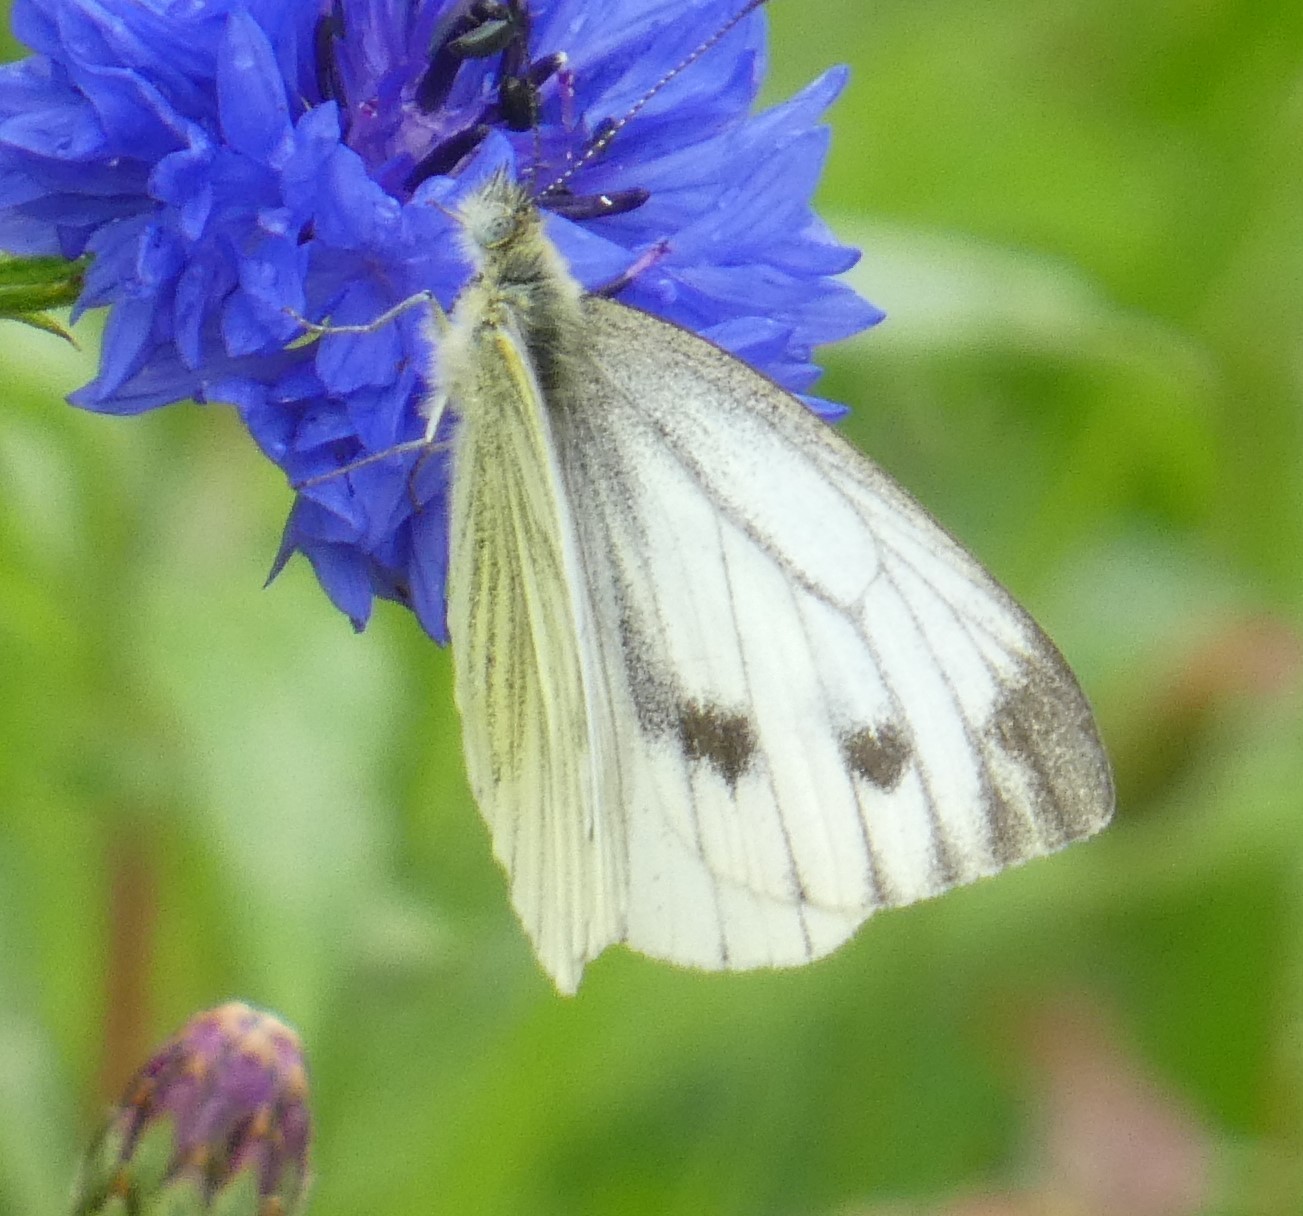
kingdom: Animalia
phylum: Arthropoda
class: Insecta
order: Lepidoptera
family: Pieridae
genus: Pieris
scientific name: Pieris napi
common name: Green-veined white
